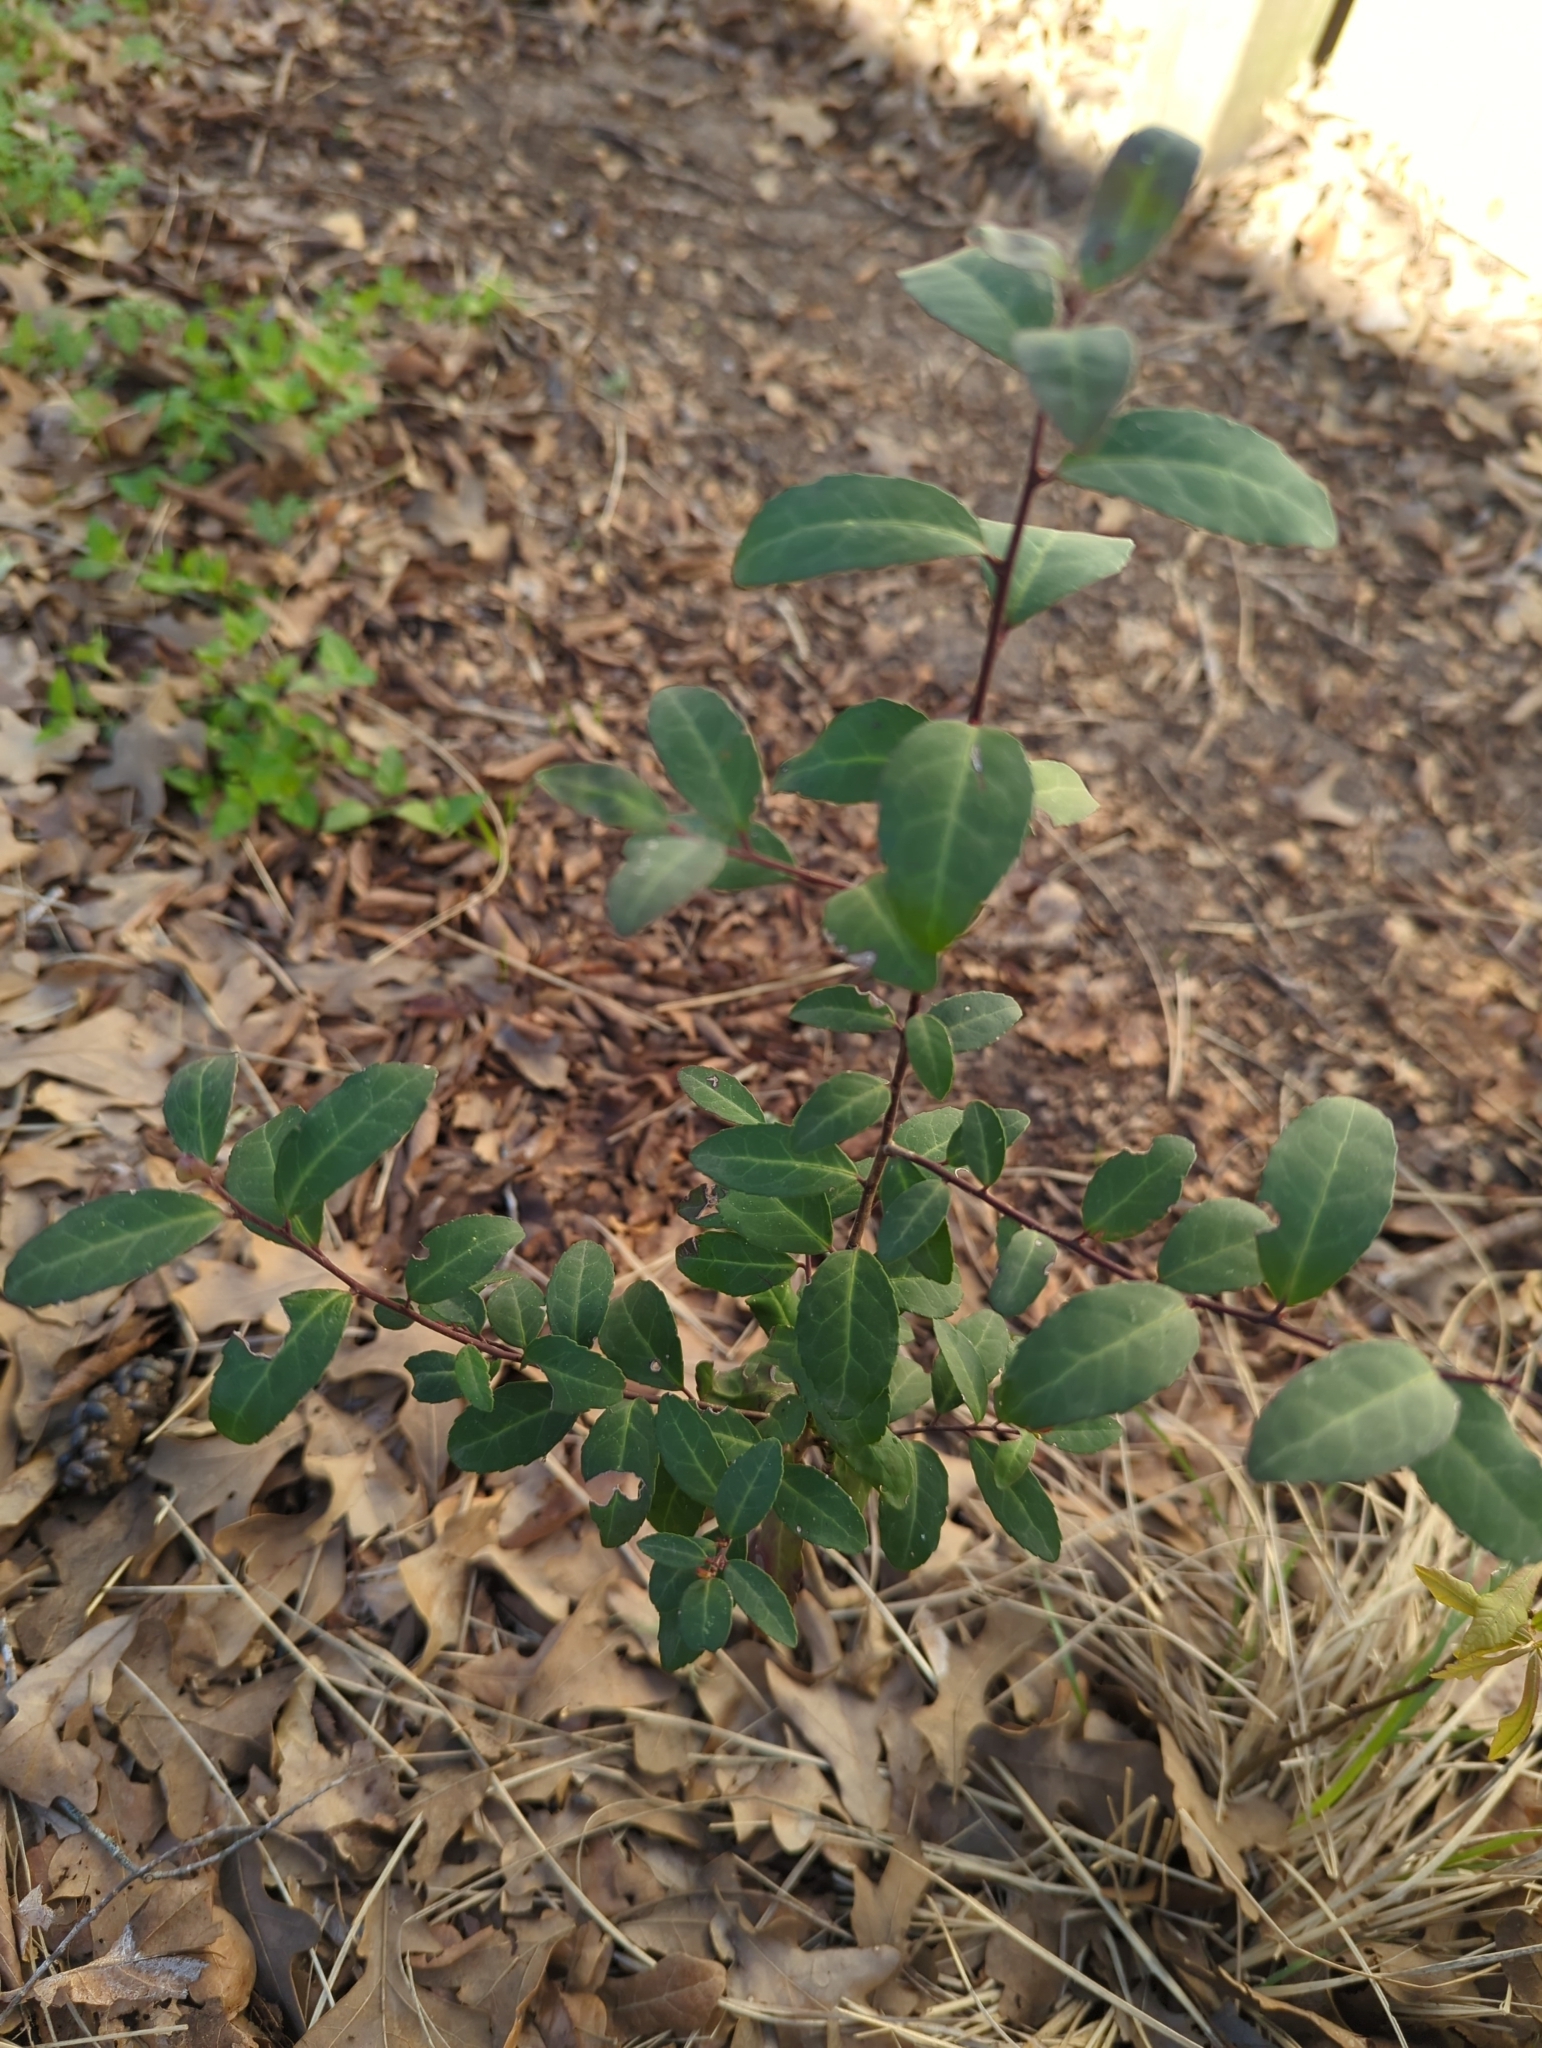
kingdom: Plantae
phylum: Tracheophyta
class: Magnoliopsida
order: Aquifoliales
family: Aquifoliaceae
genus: Ilex
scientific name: Ilex vomitoria
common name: Yaupon holly
